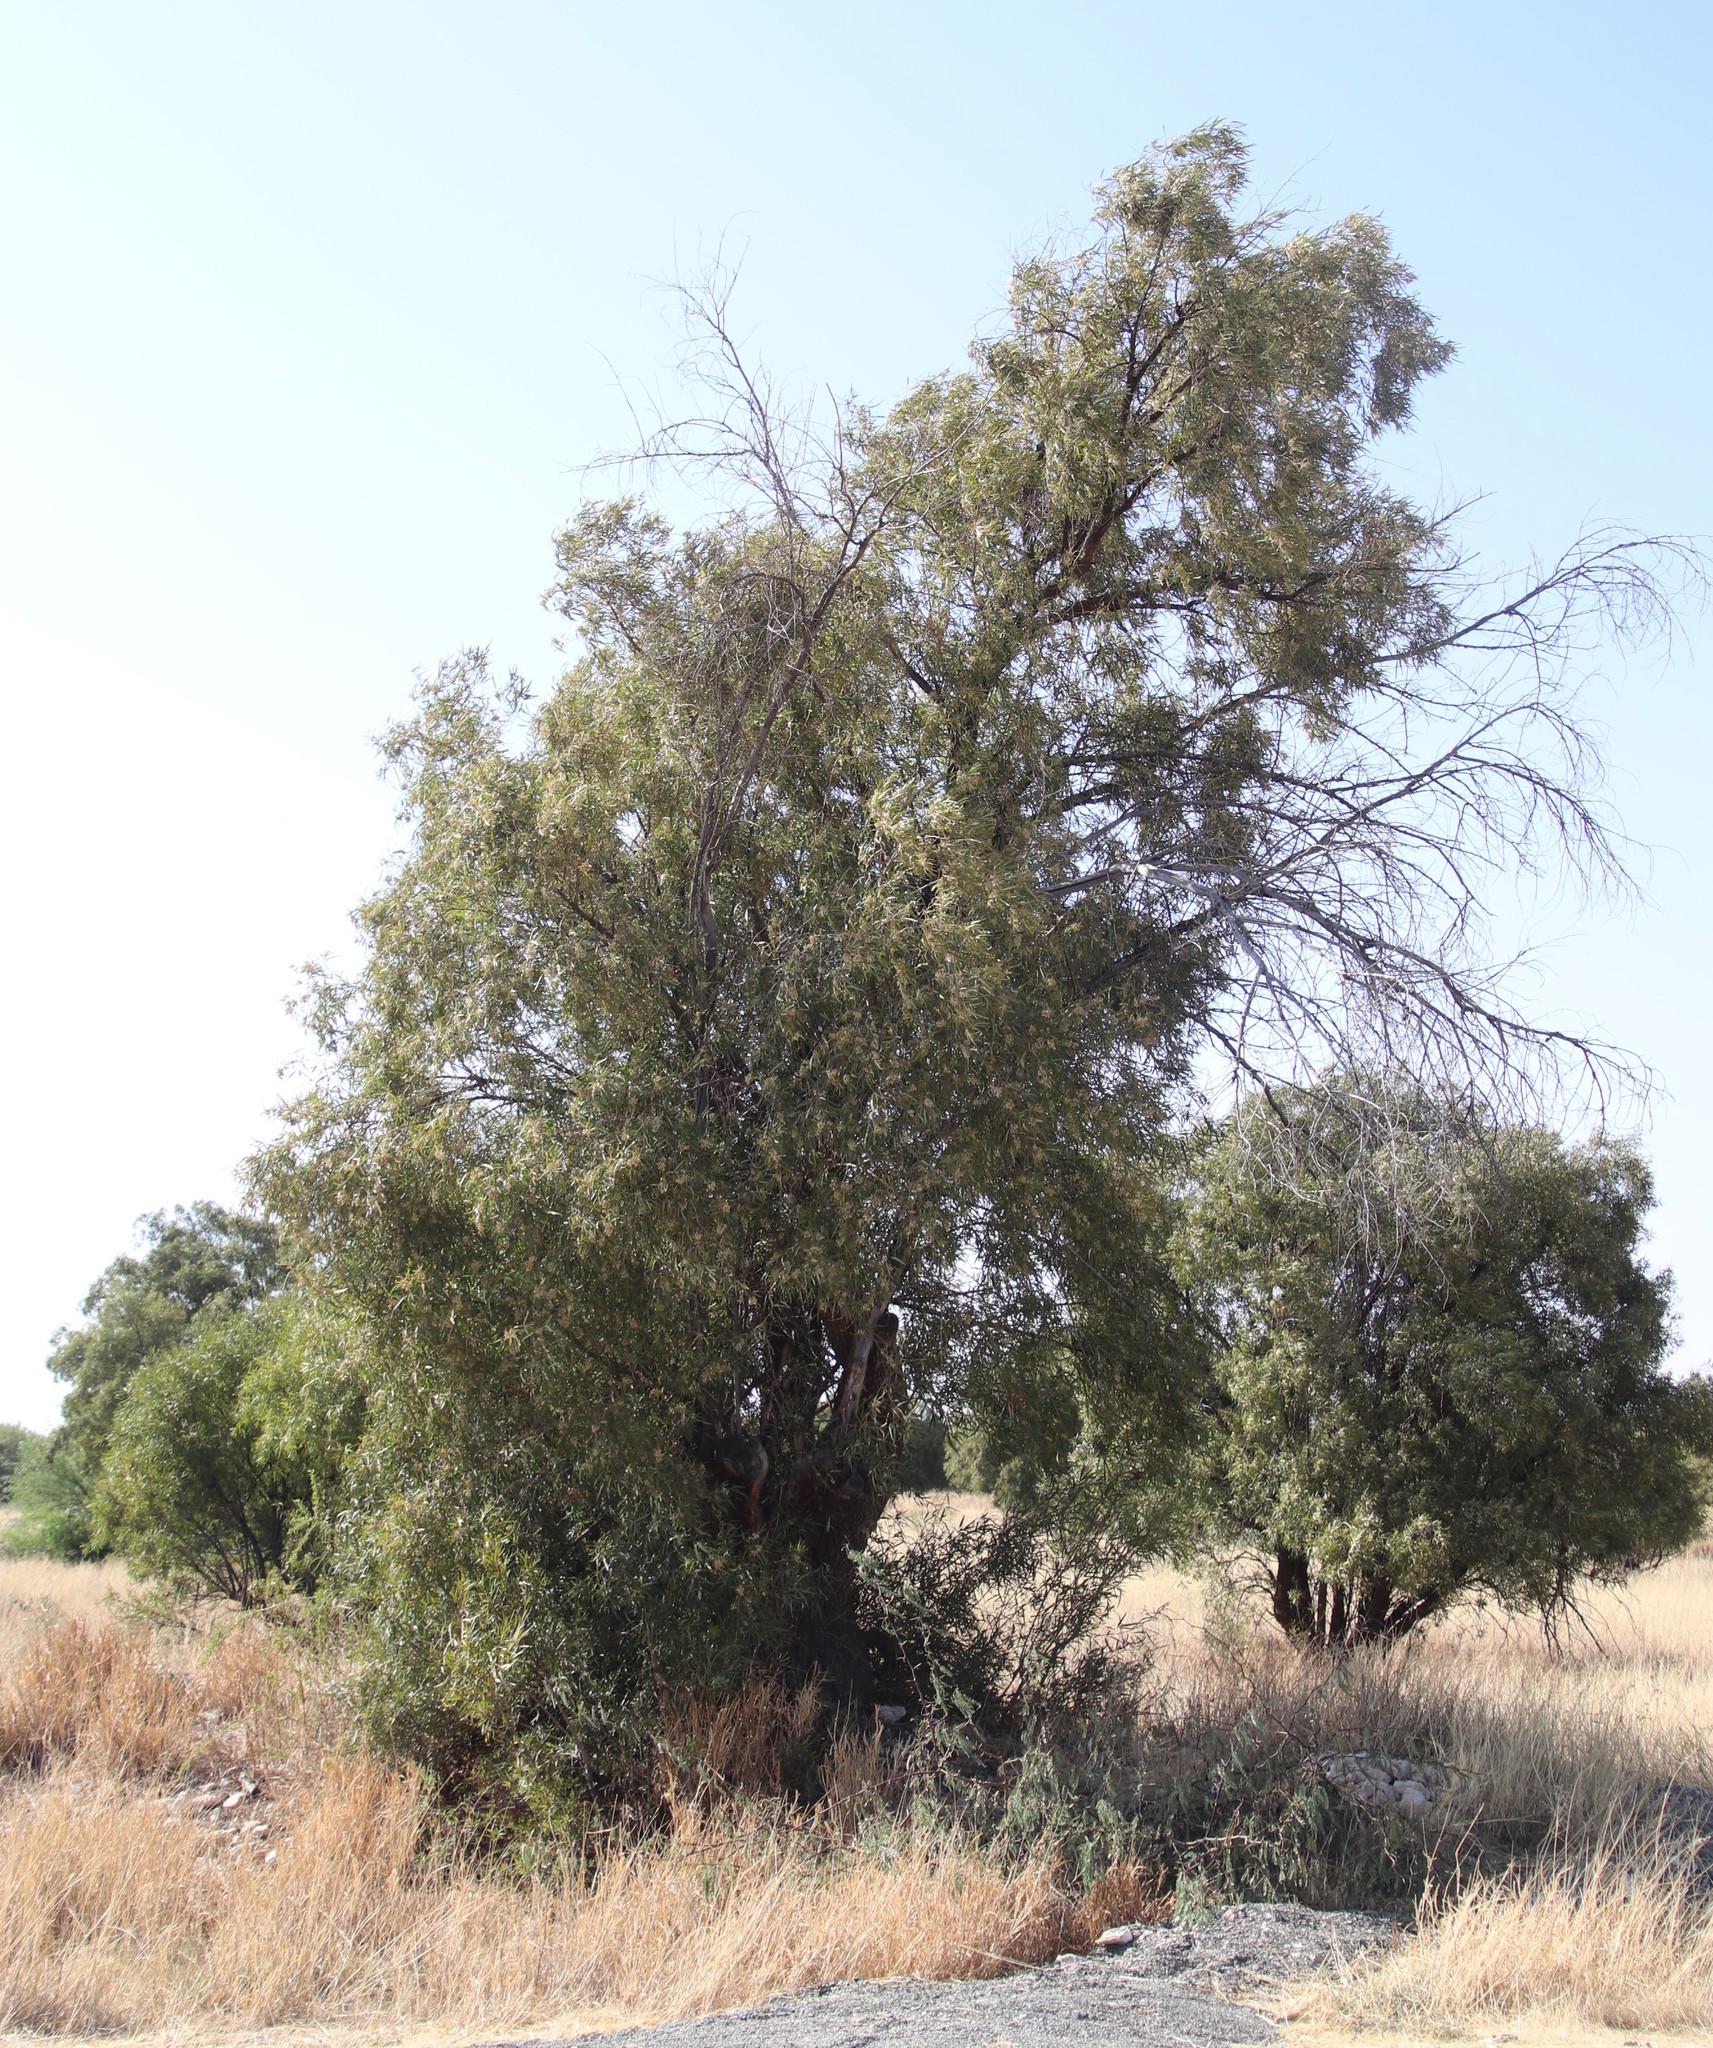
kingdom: Plantae
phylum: Tracheophyta
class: Magnoliopsida
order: Sapindales
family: Anacardiaceae
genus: Searsia
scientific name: Searsia lancea
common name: Cashew
